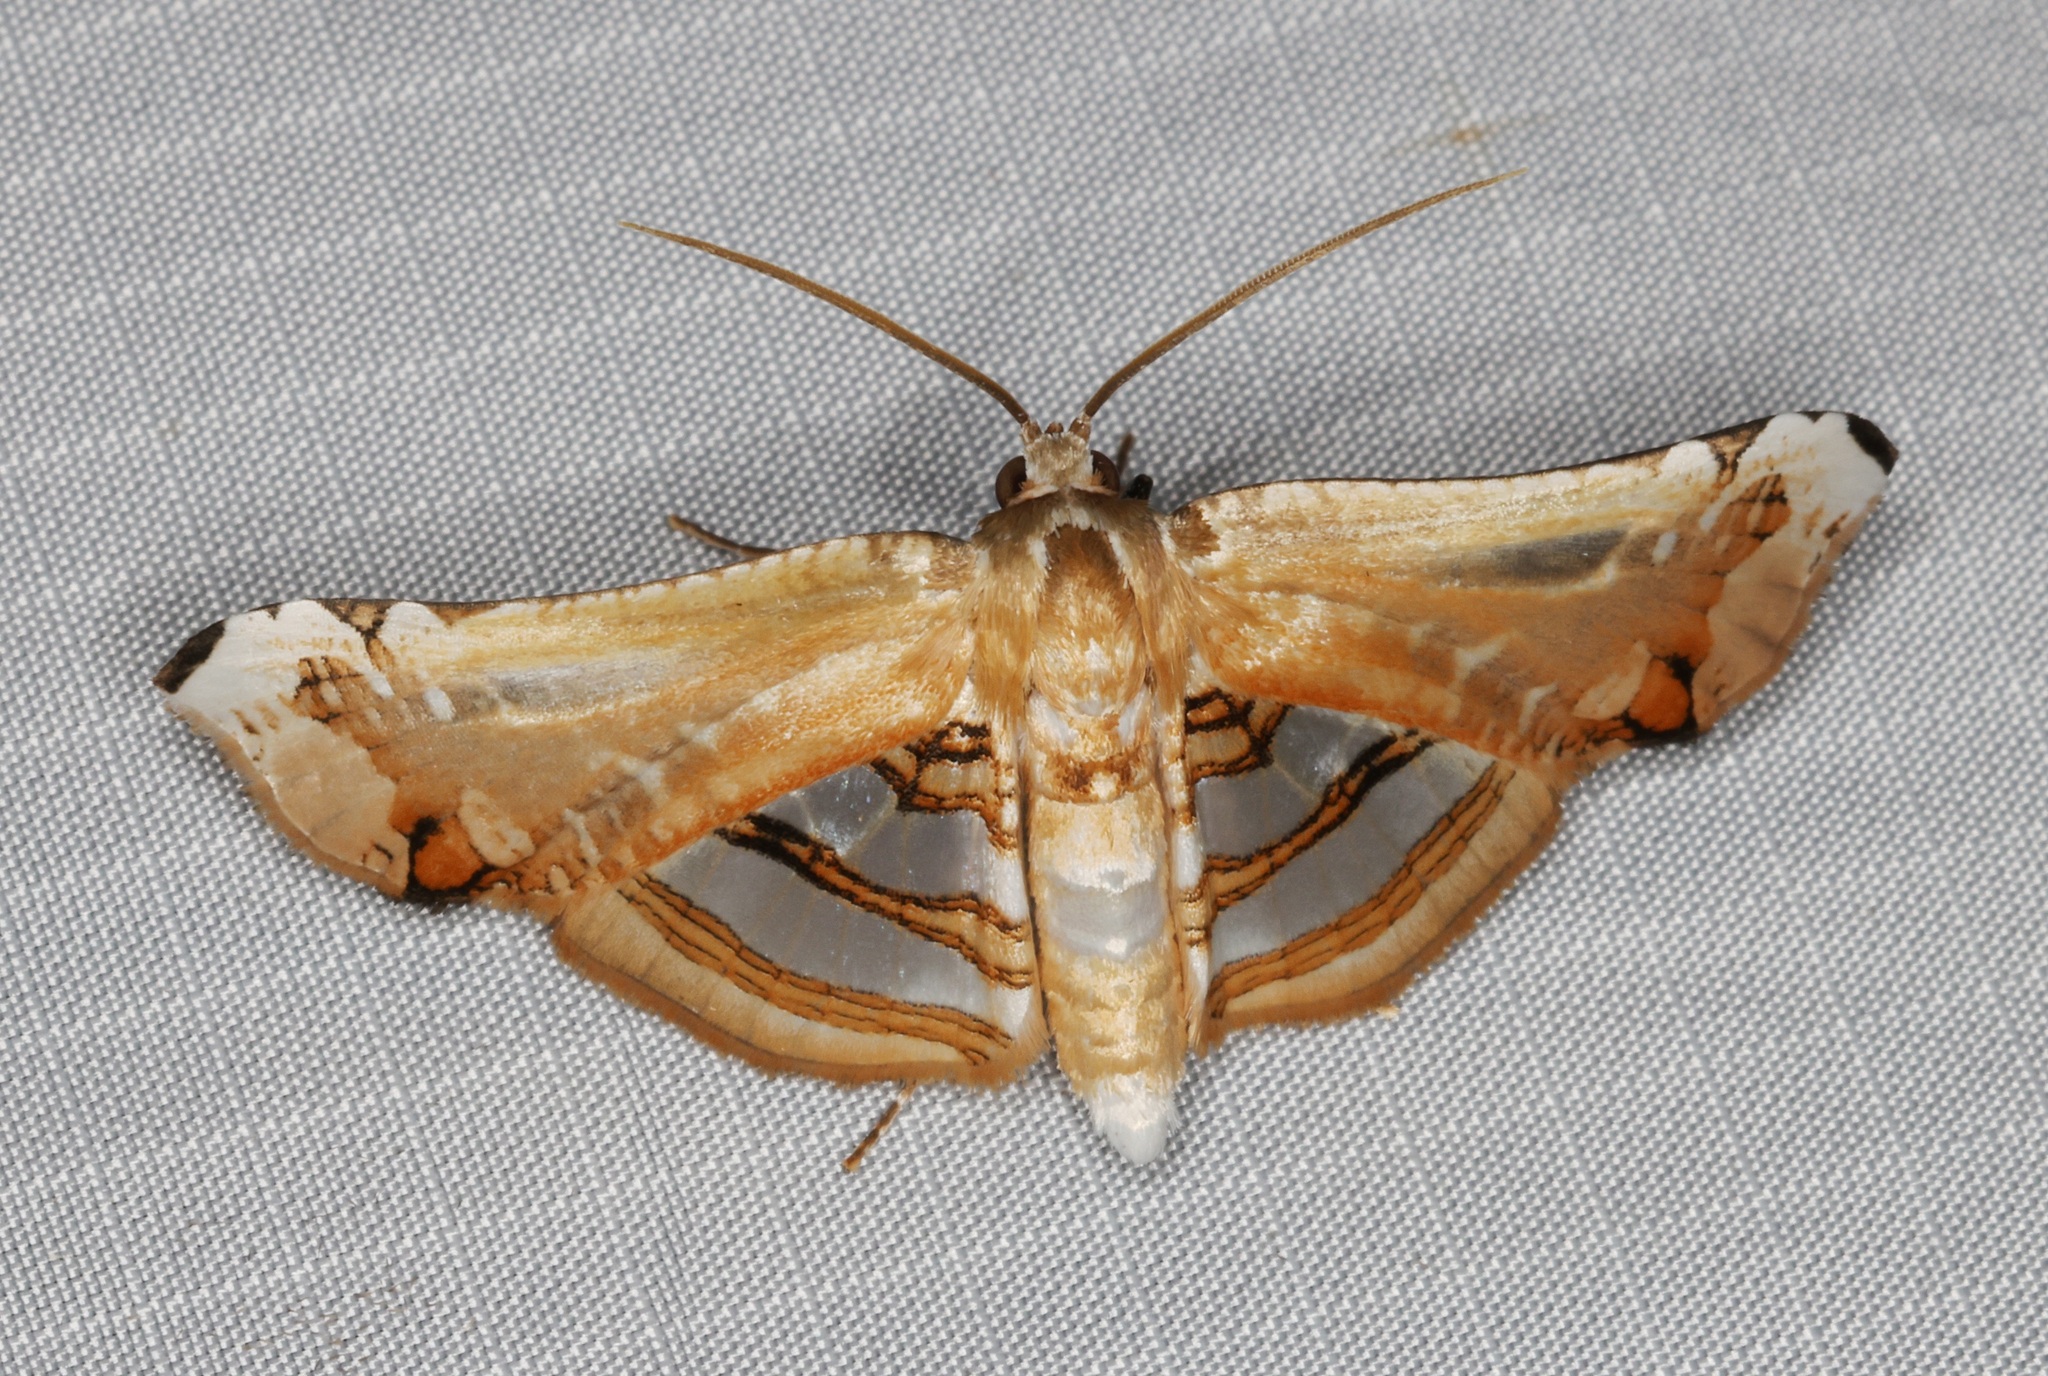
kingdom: Animalia
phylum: Arthropoda
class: Insecta
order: Lepidoptera
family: Thyrididae
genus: Herdonia
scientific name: Herdonia hainanensis
